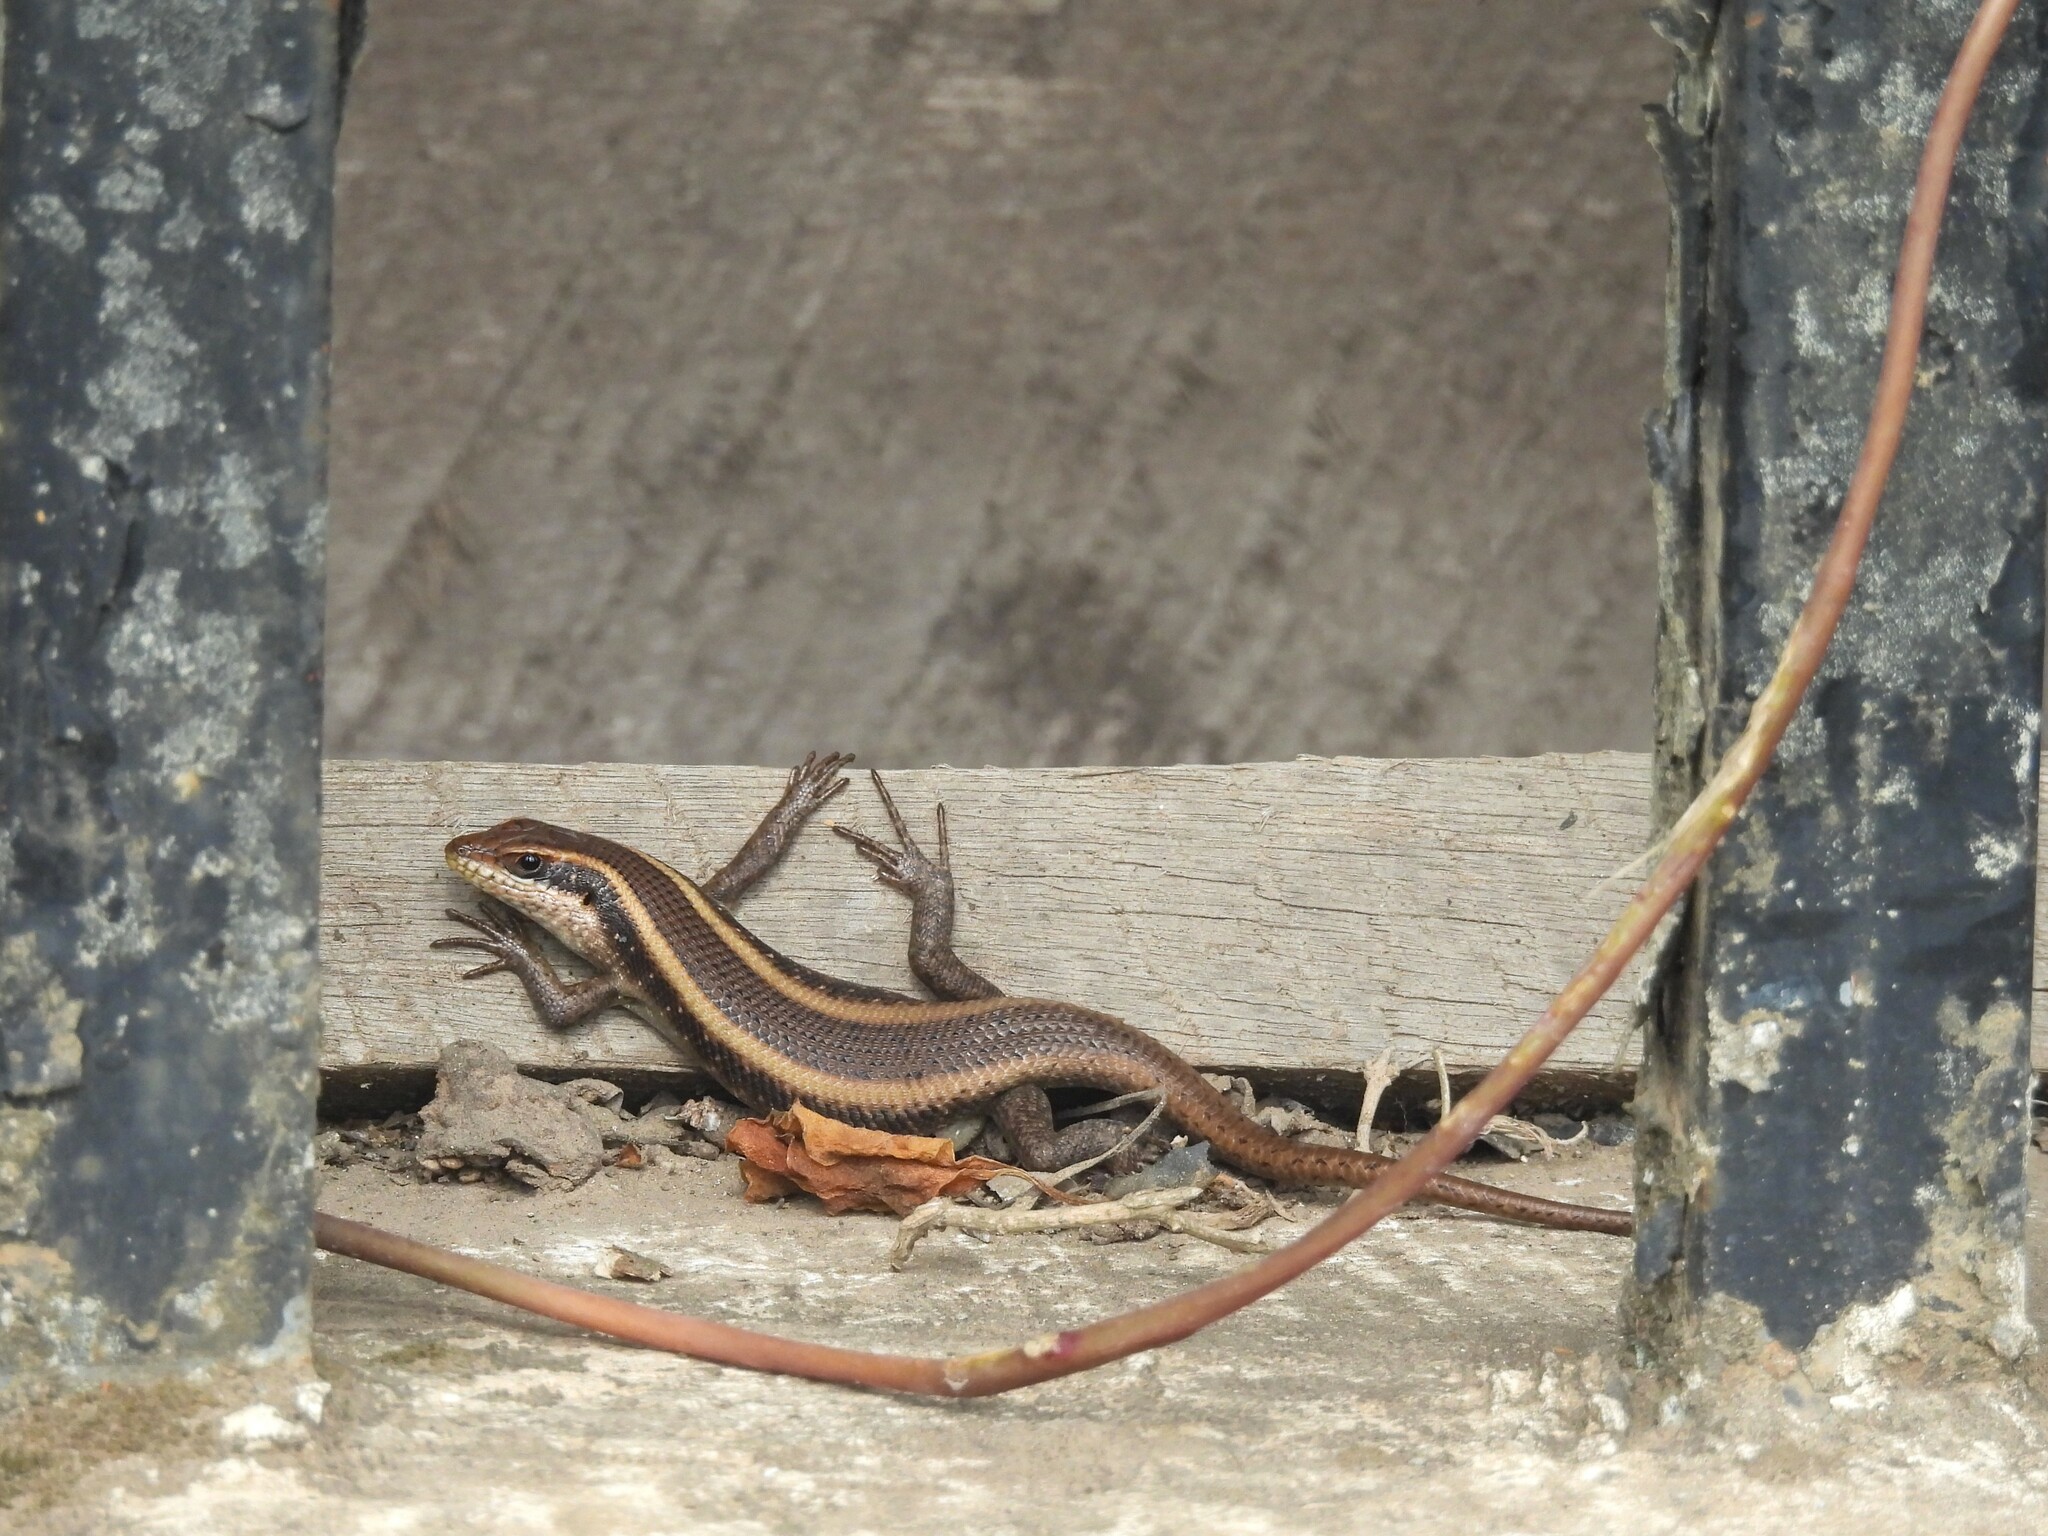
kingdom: Animalia
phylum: Chordata
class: Squamata
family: Scincidae
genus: Trachylepis
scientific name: Trachylepis striata
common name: African striped mabuya
